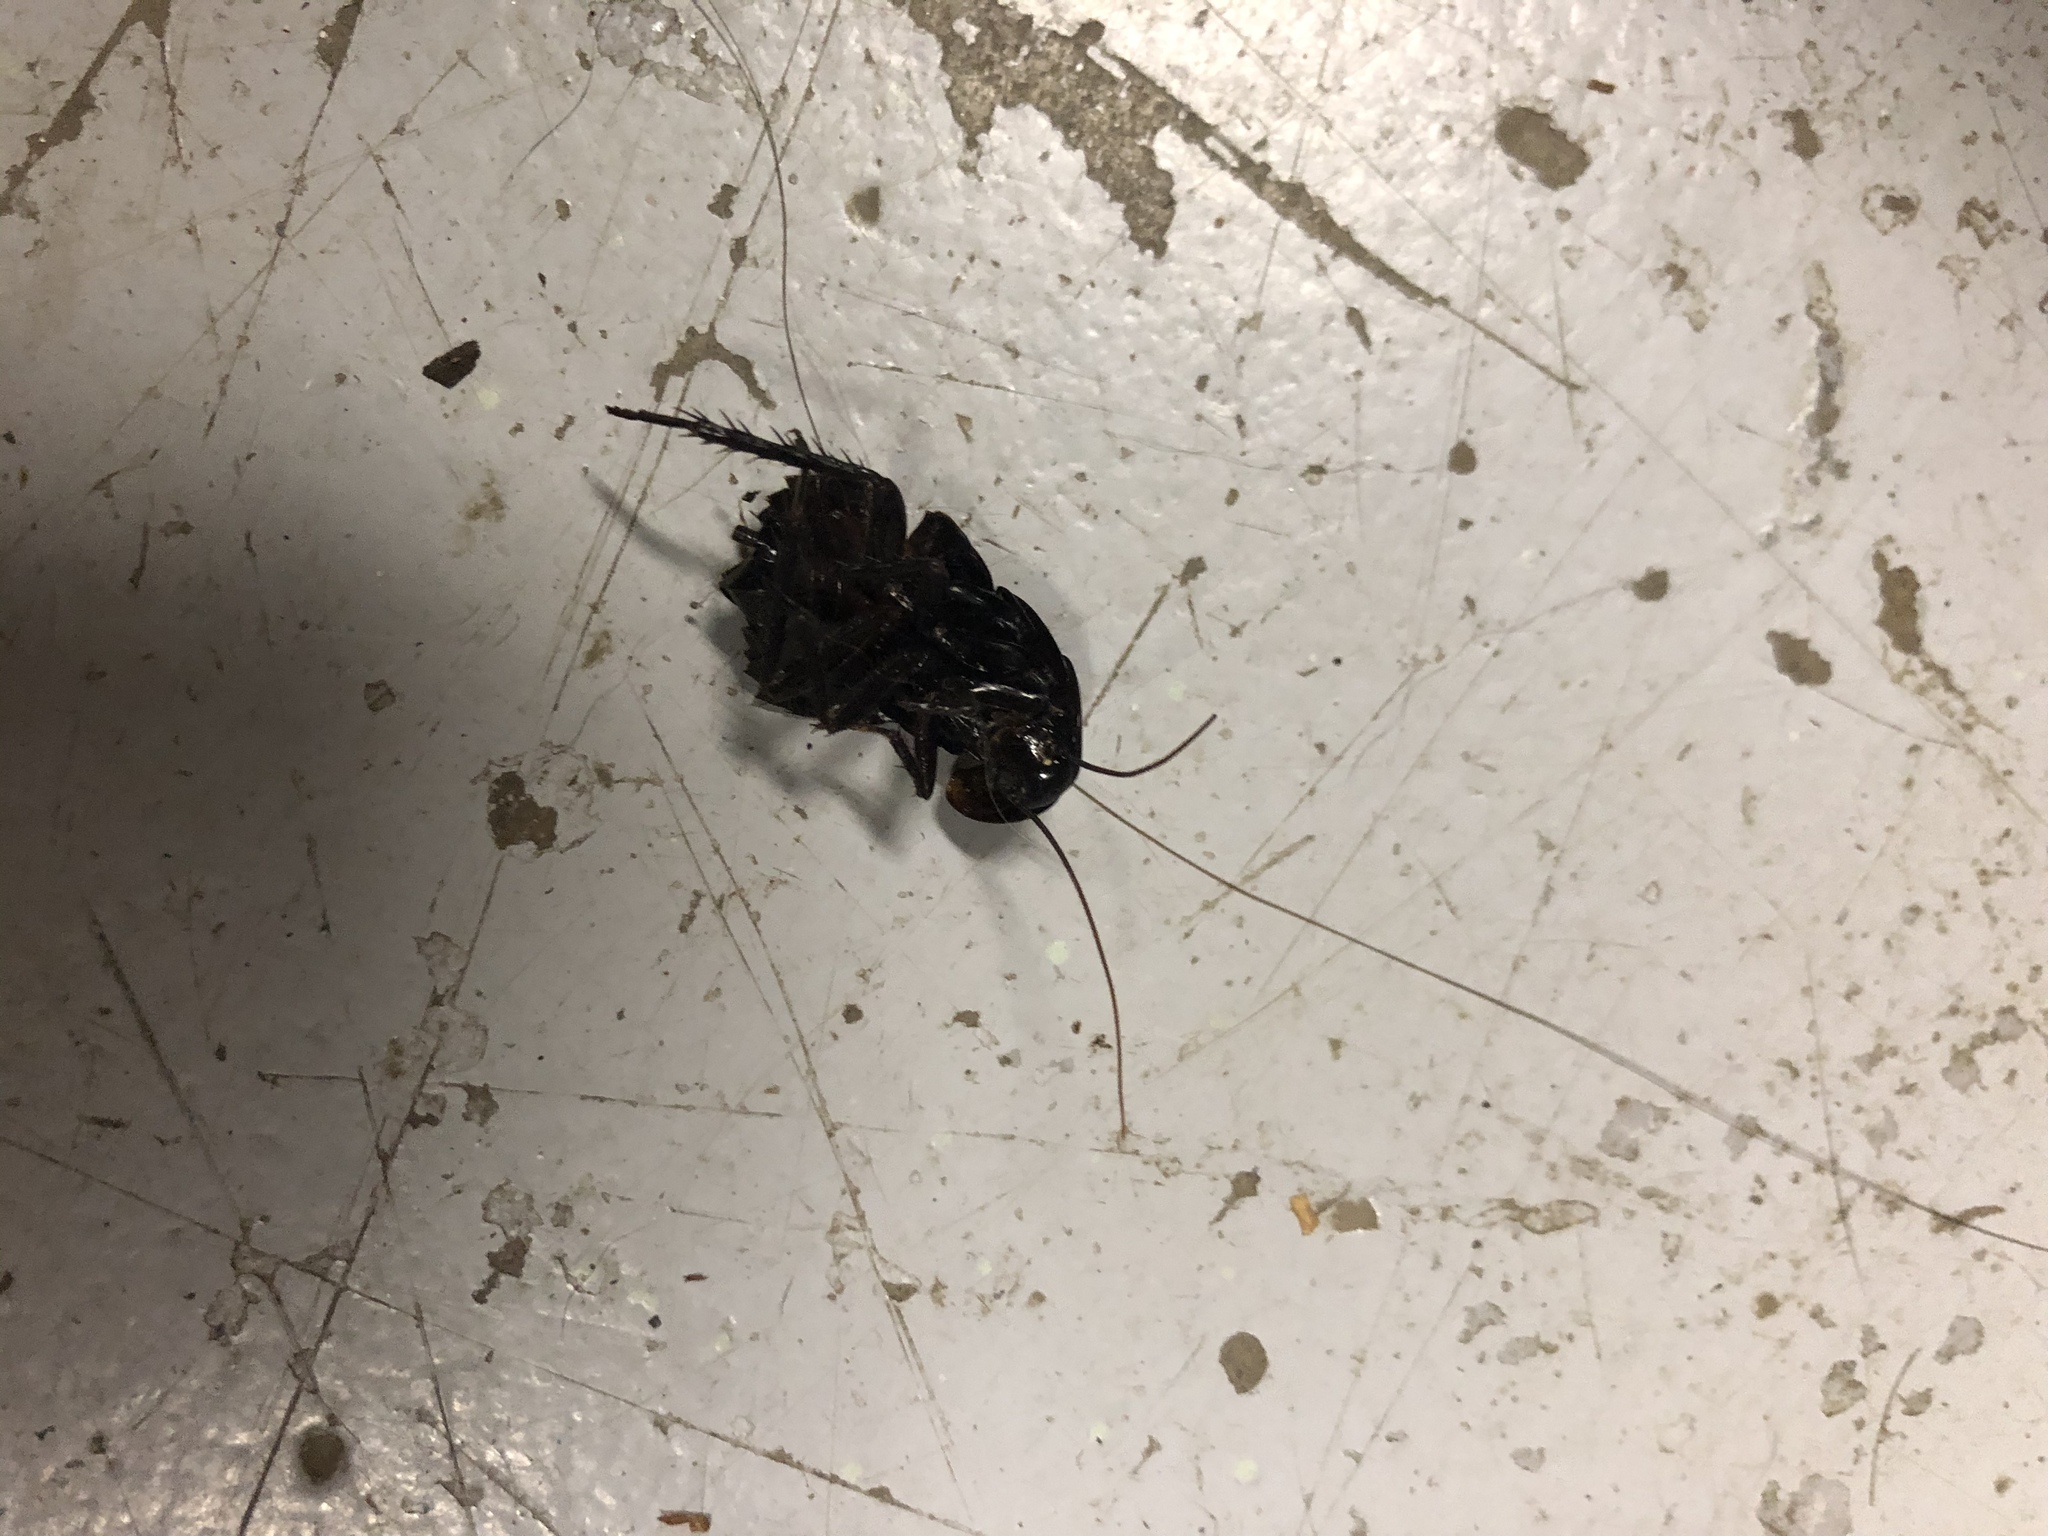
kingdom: Animalia
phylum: Arthropoda
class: Insecta
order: Blattodea
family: Blattidae
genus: Blatta
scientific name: Blatta orientalis
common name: Oriental cockroach
